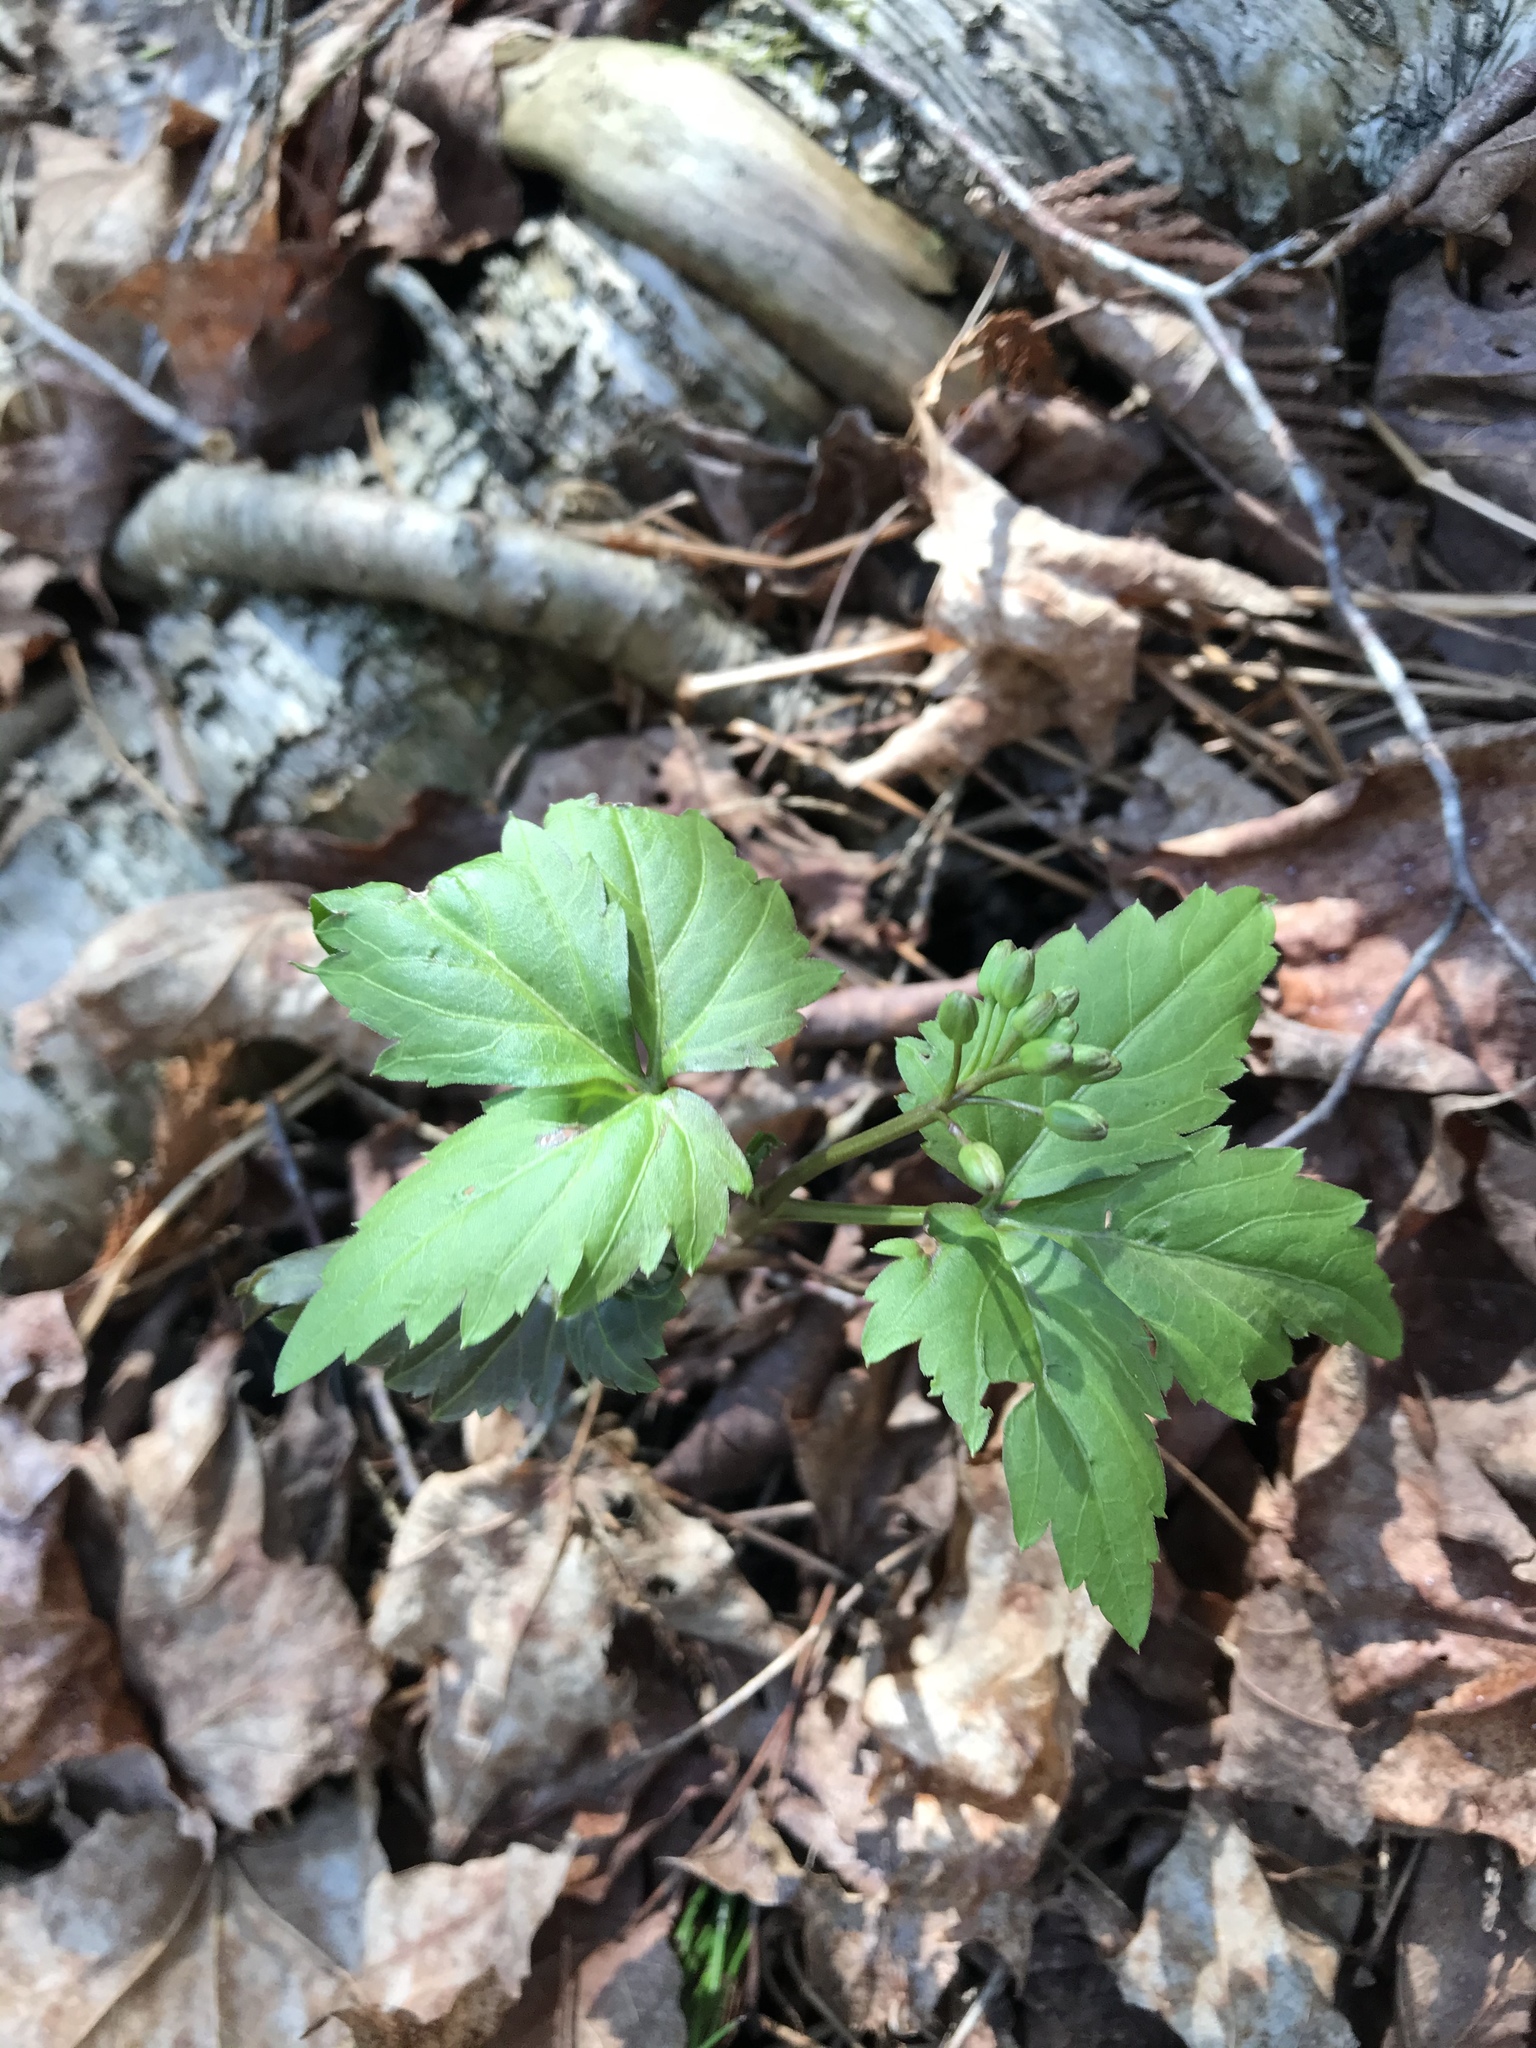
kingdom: Plantae
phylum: Tracheophyta
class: Magnoliopsida
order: Brassicales
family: Brassicaceae
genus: Cardamine
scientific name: Cardamine diphylla
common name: Broad-leaved toothwort
